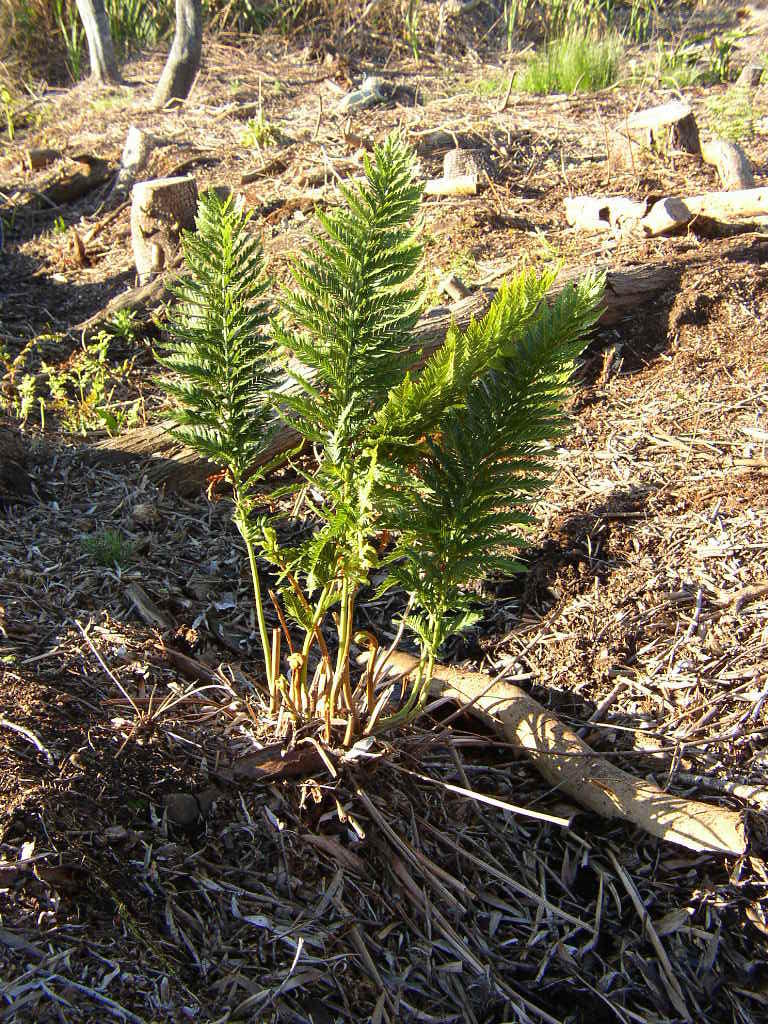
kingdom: Plantae
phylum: Tracheophyta
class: Polypodiopsida
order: Osmundales
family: Osmundaceae
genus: Todea
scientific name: Todea barbara
